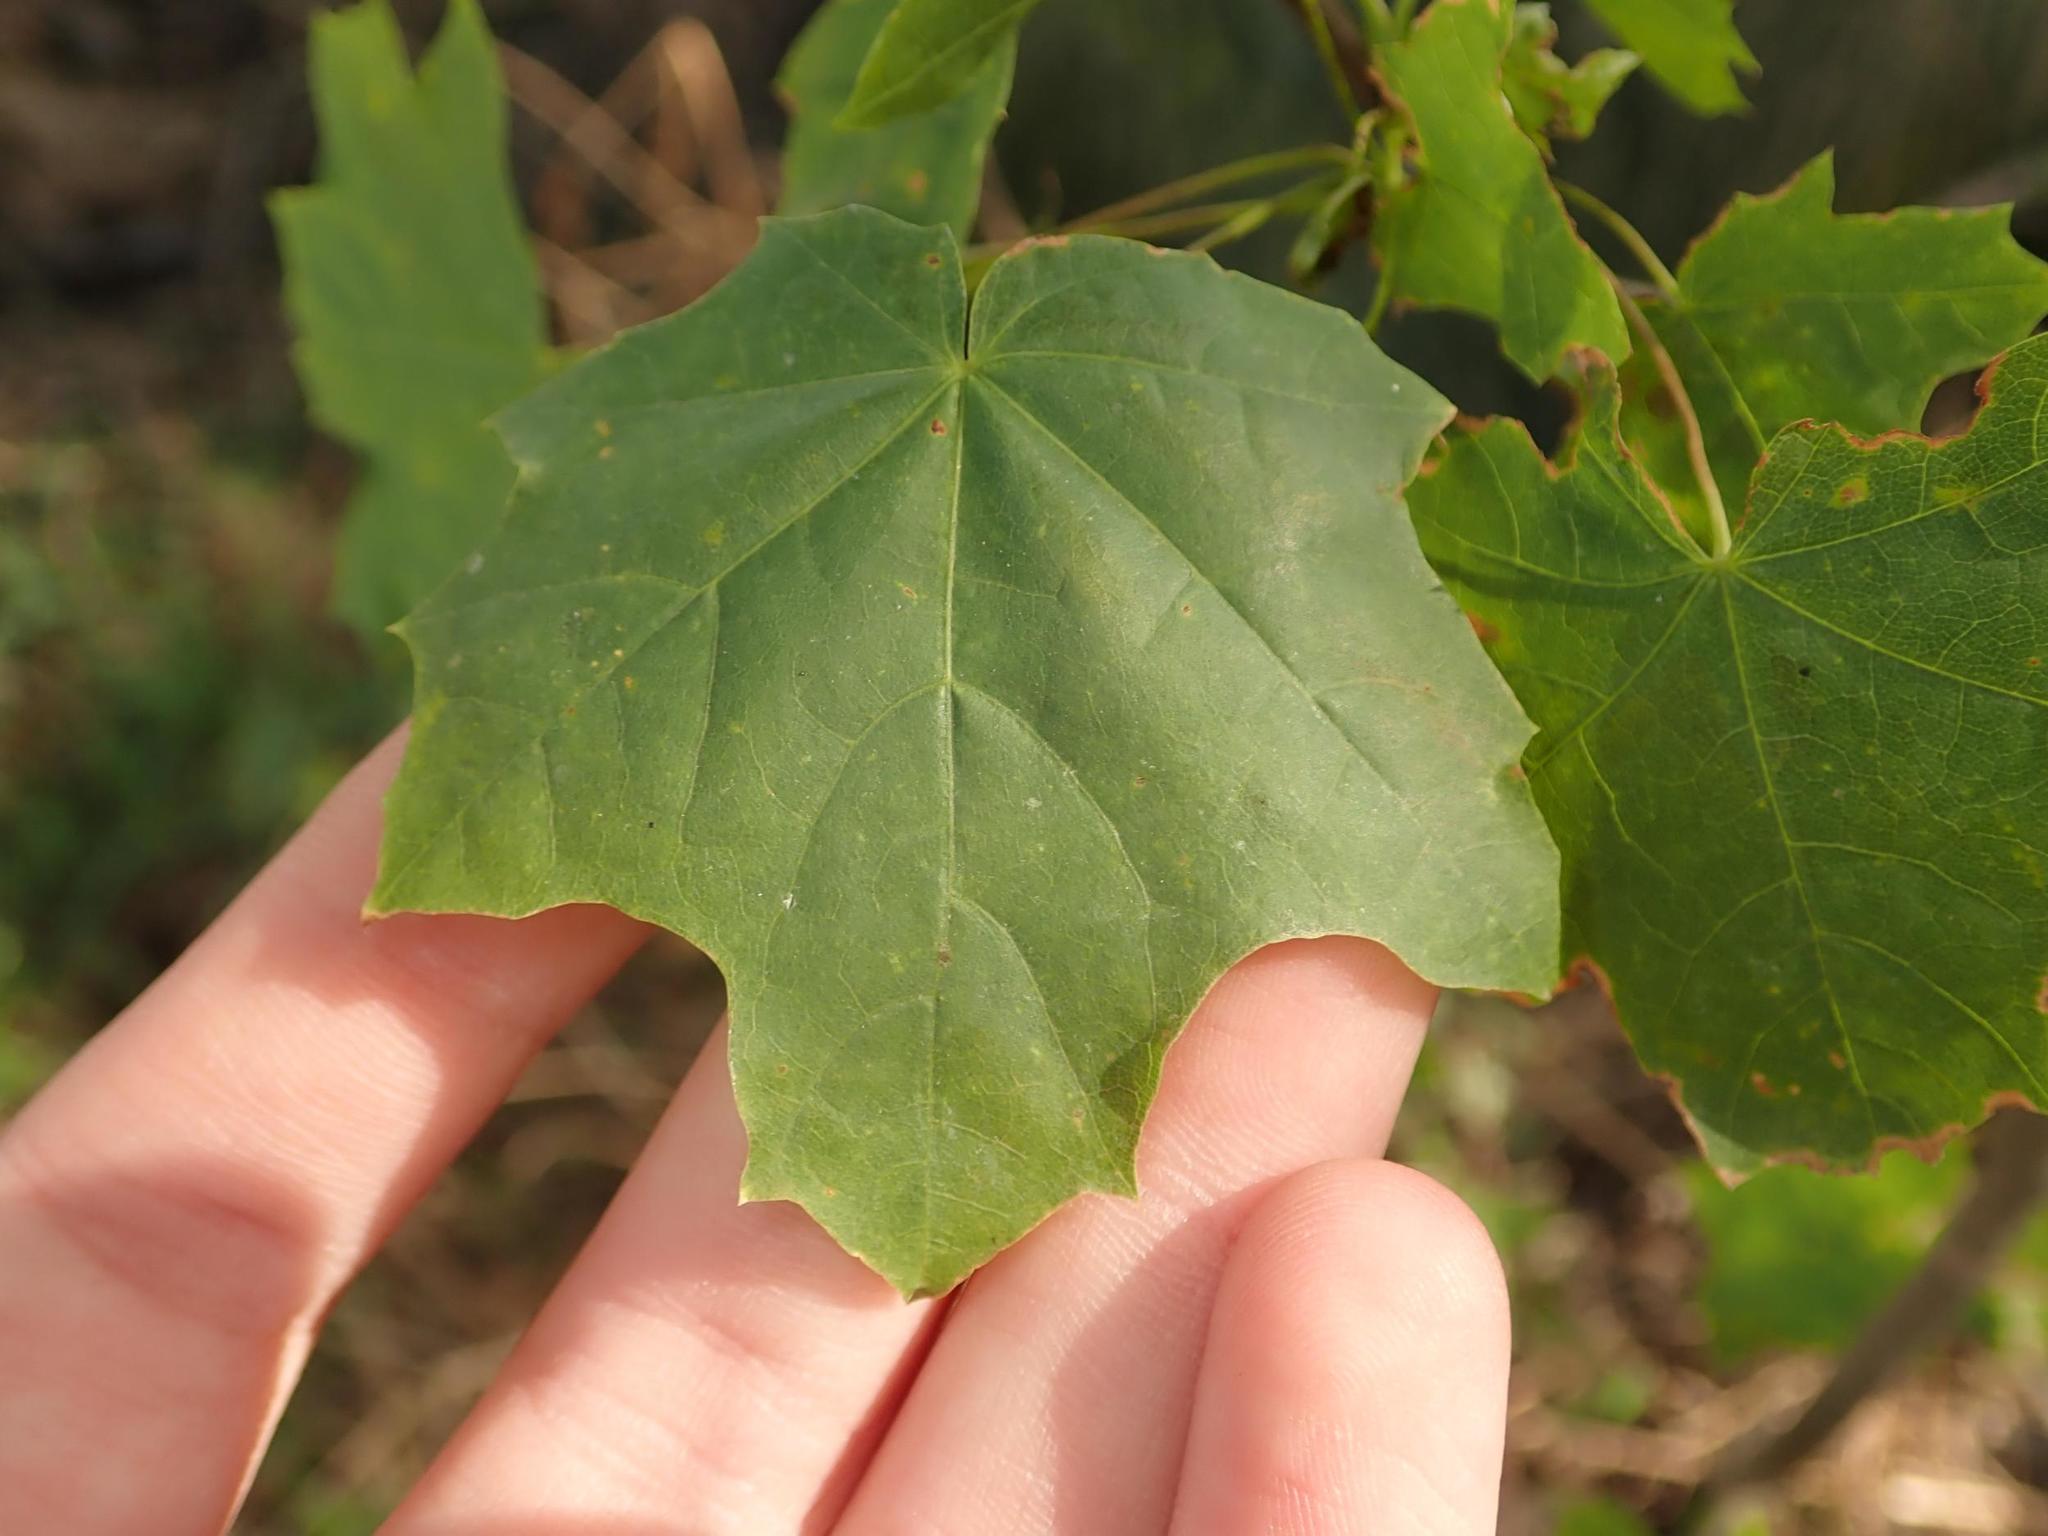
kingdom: Plantae
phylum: Tracheophyta
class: Magnoliopsida
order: Sapindales
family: Sapindaceae
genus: Acer
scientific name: Acer platanoides
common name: Norway maple
